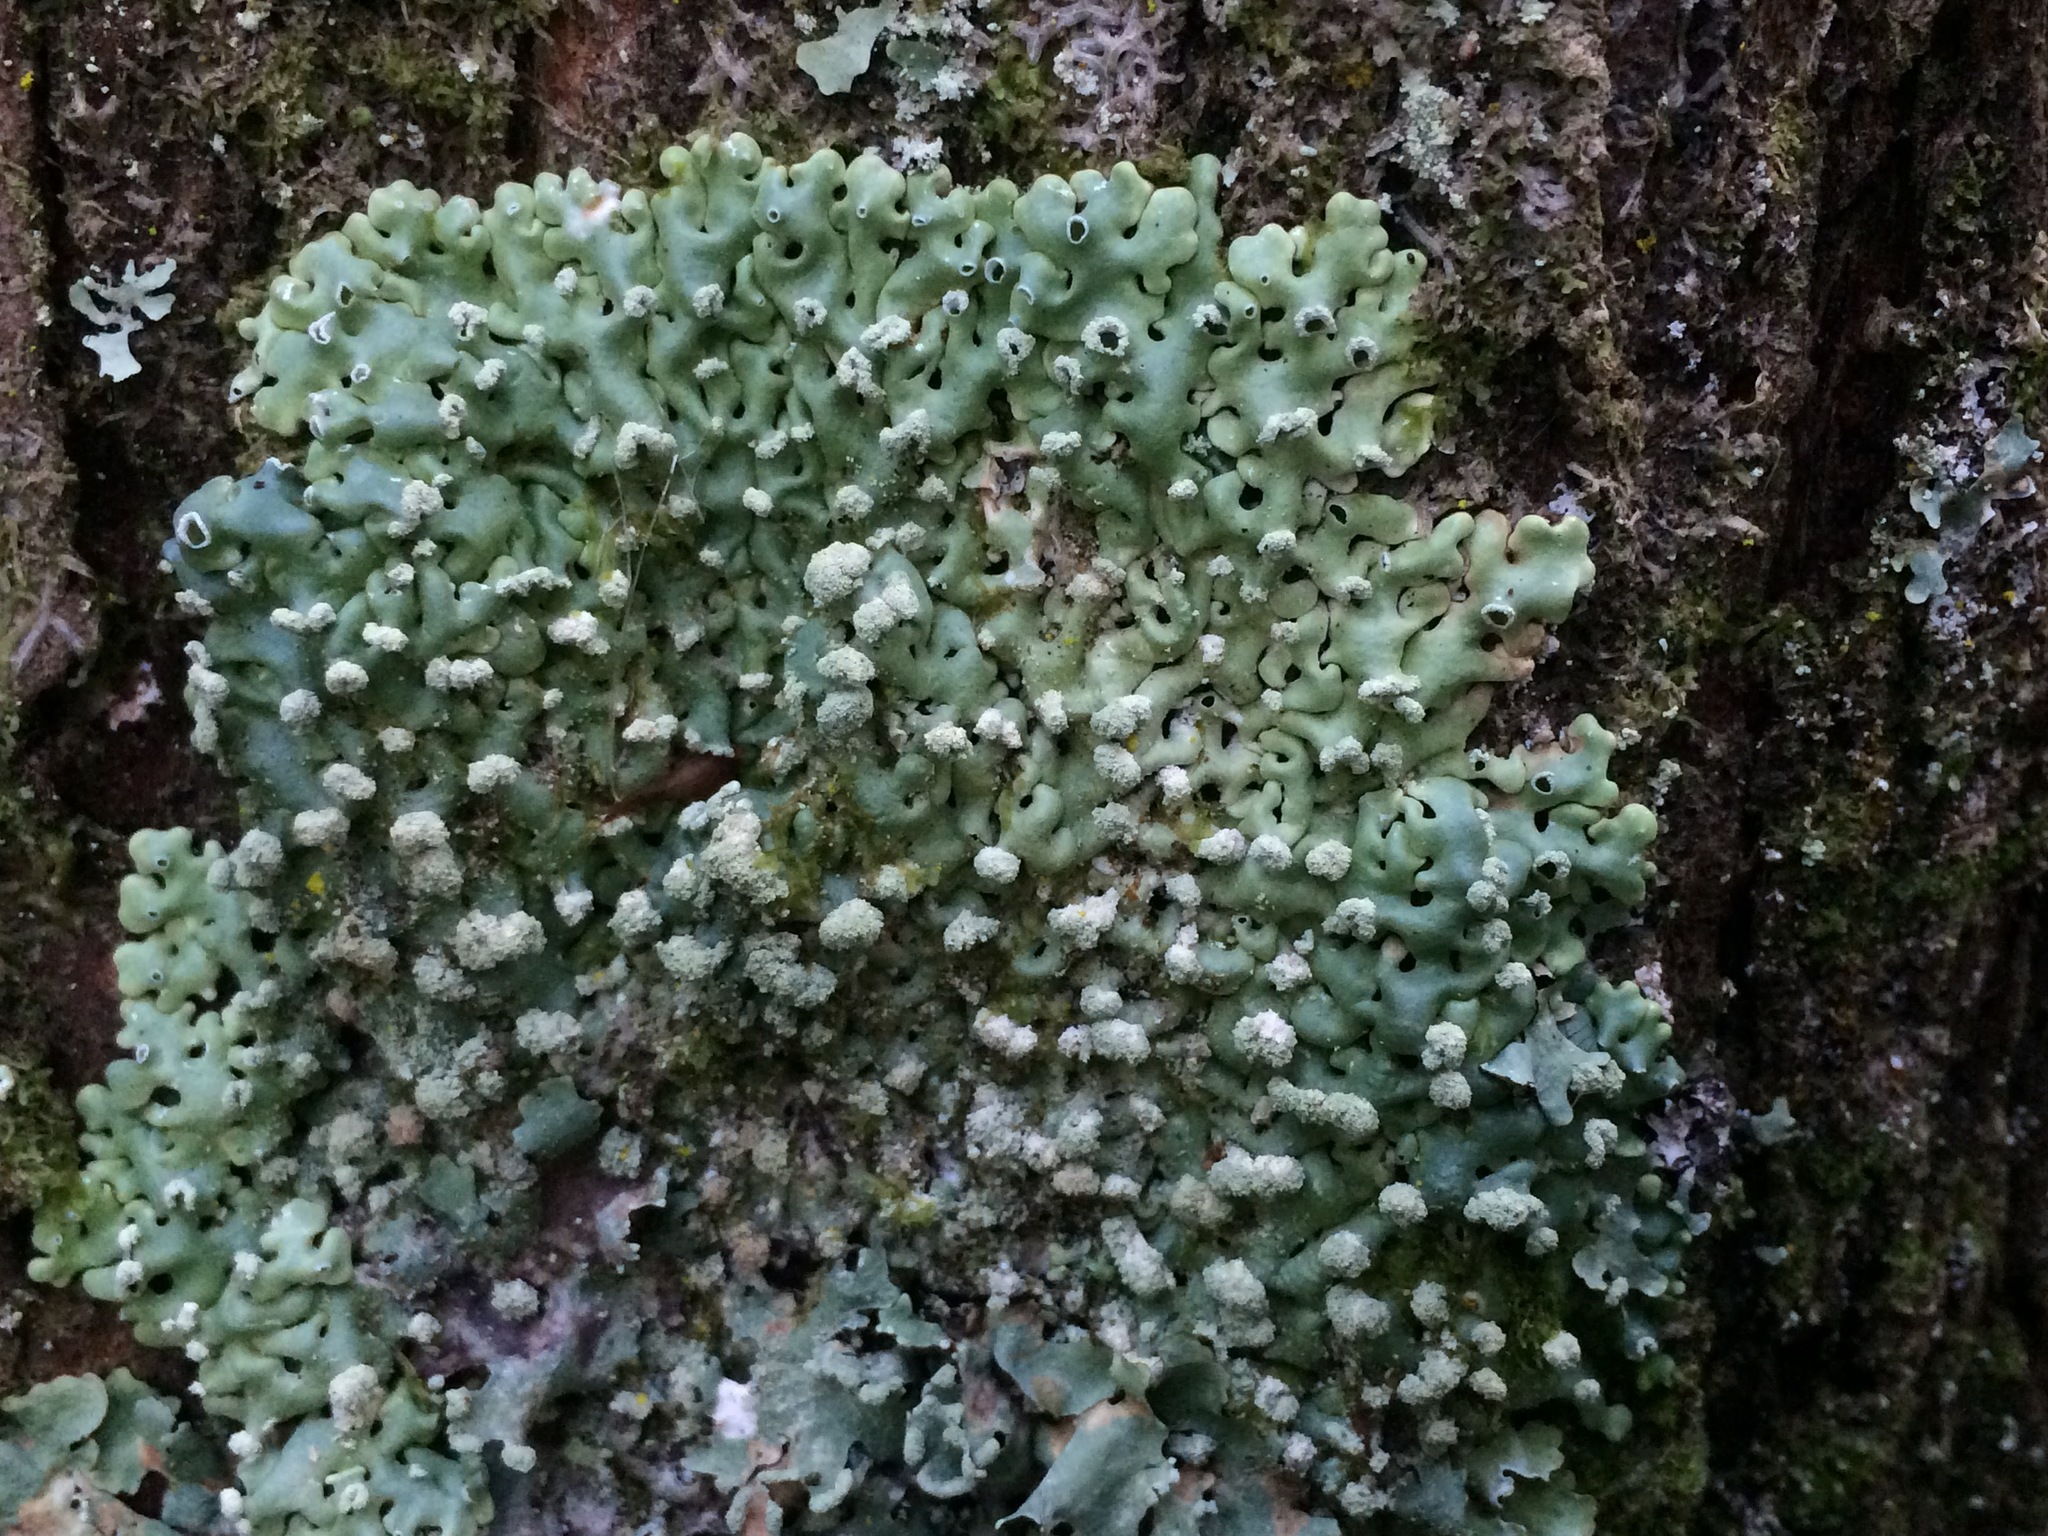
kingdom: Fungi
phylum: Ascomycota
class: Lecanoromycetes
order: Lecanorales
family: Parmeliaceae
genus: Menegazzia
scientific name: Menegazzia neozelandica
